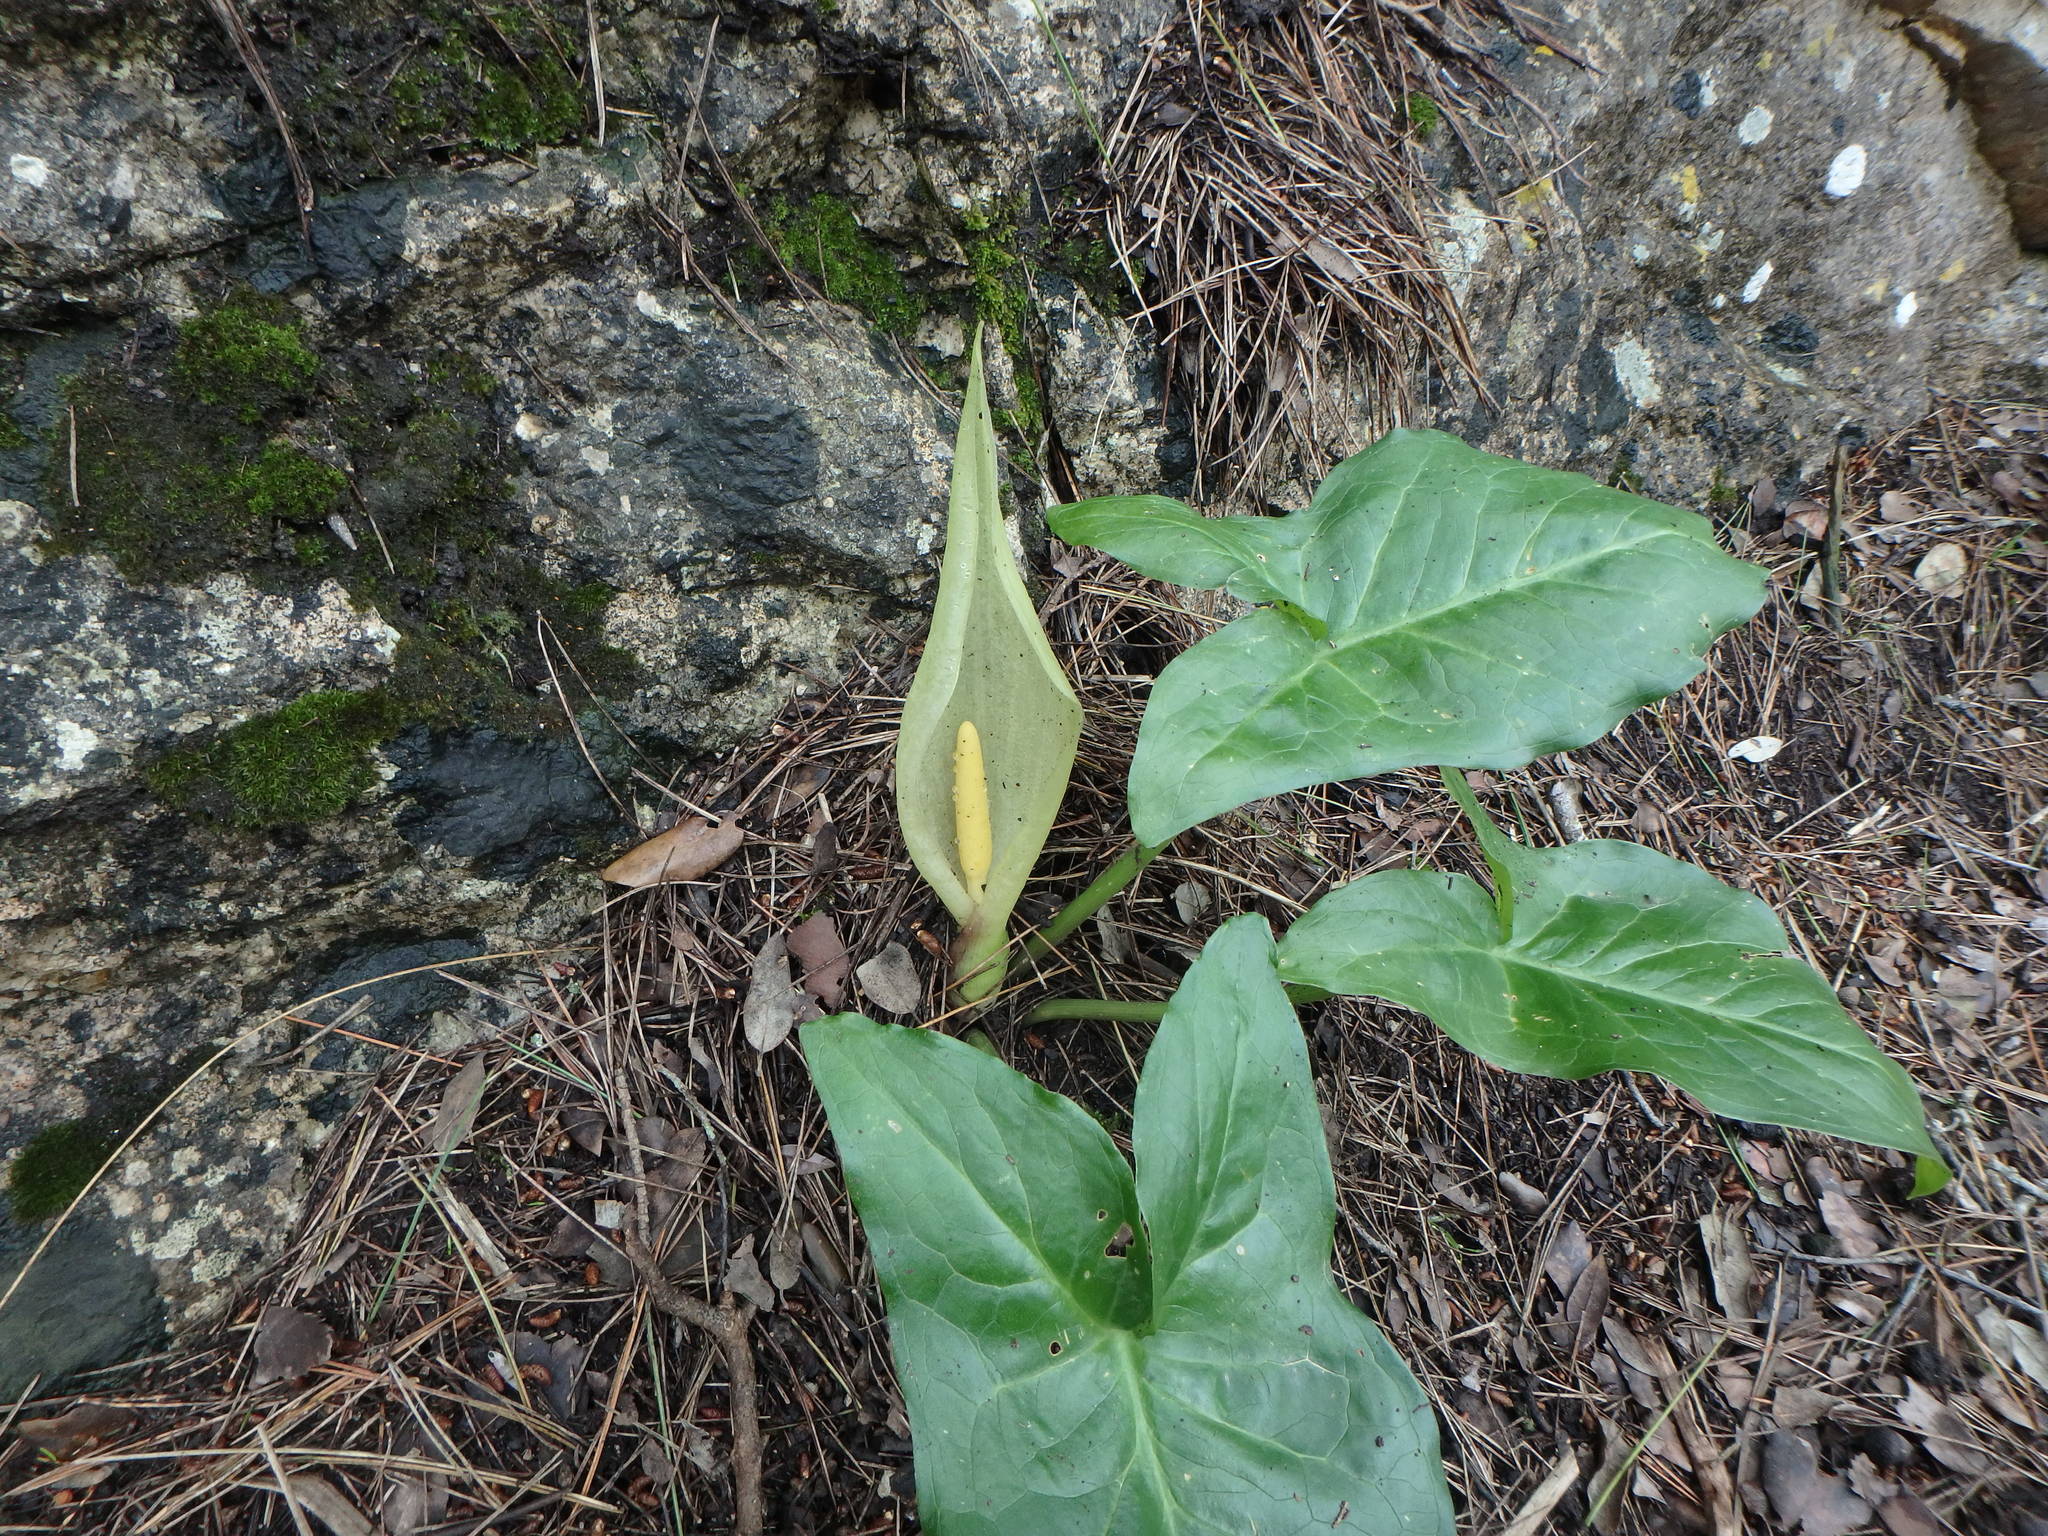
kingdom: Plantae
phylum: Tracheophyta
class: Liliopsida
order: Alismatales
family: Araceae
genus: Arum
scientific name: Arum italicum
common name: Italian lords-and-ladies
